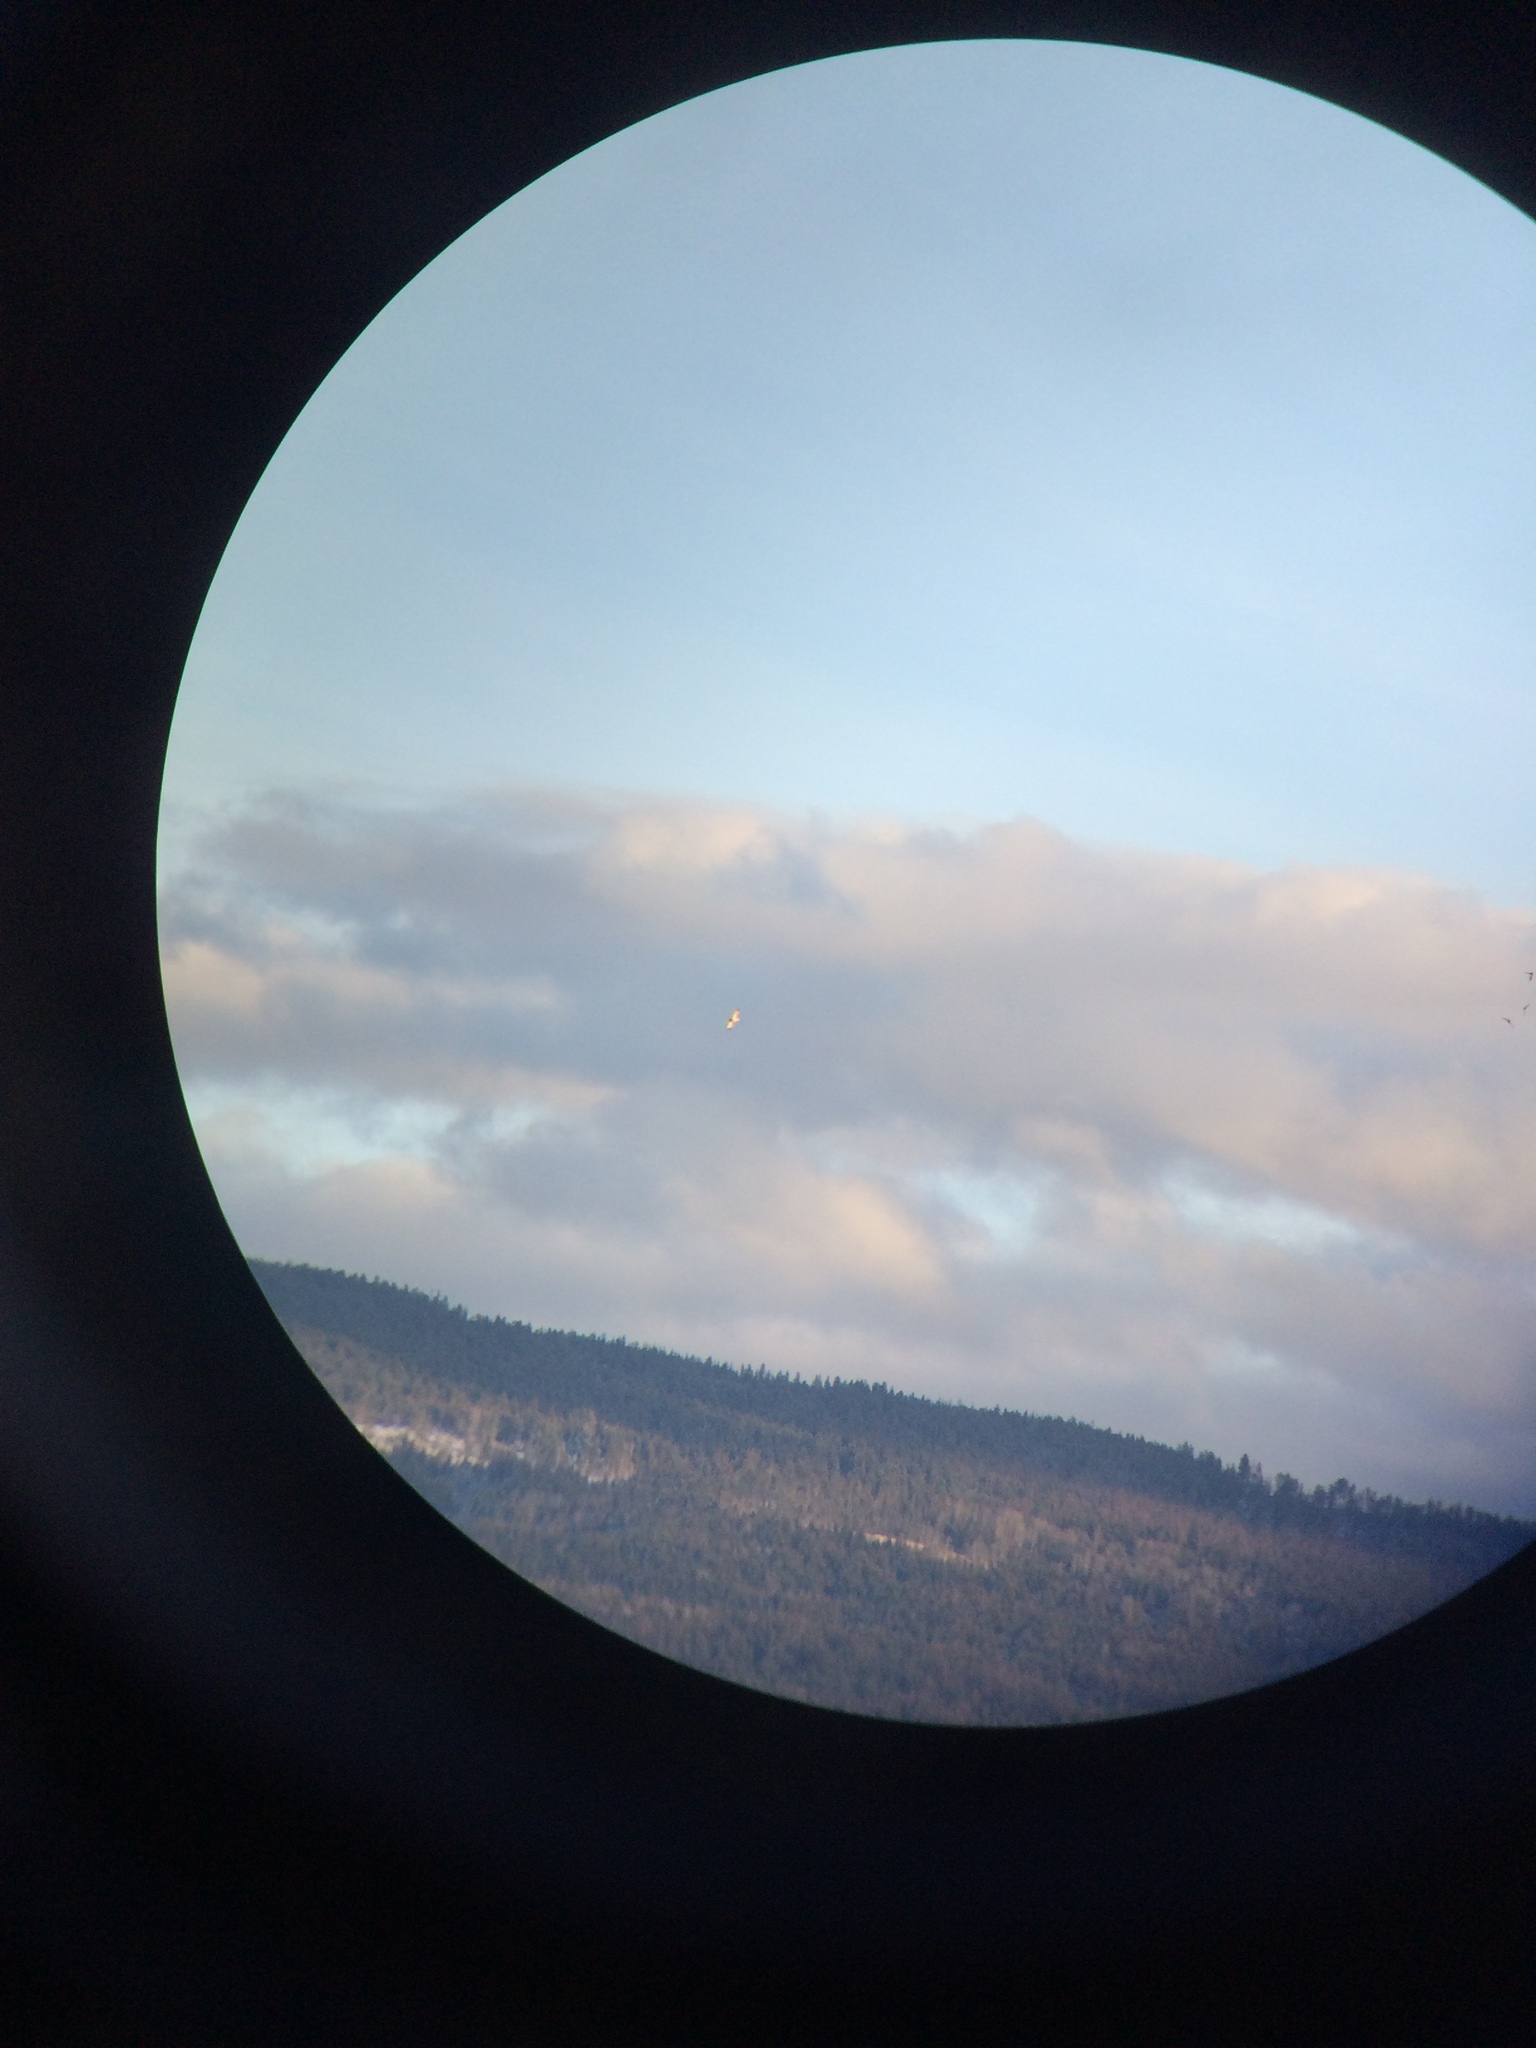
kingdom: Animalia
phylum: Chordata
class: Aves
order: Strigiformes
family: Strigidae
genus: Asio
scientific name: Asio flammeus
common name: Short-eared owl
